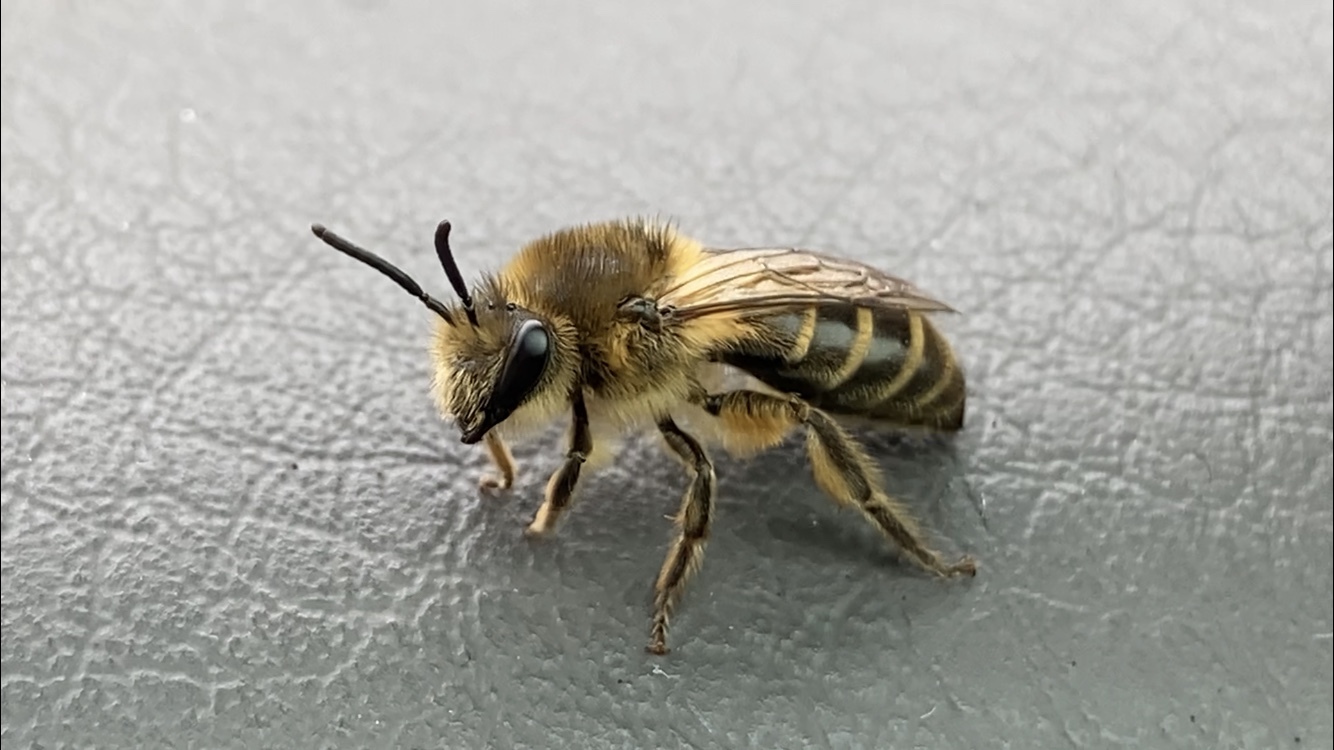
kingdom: Animalia
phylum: Arthropoda
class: Insecta
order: Hymenoptera
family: Colletidae
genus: Colletes
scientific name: Colletes inaequalis
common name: Unequal cellophane bee
